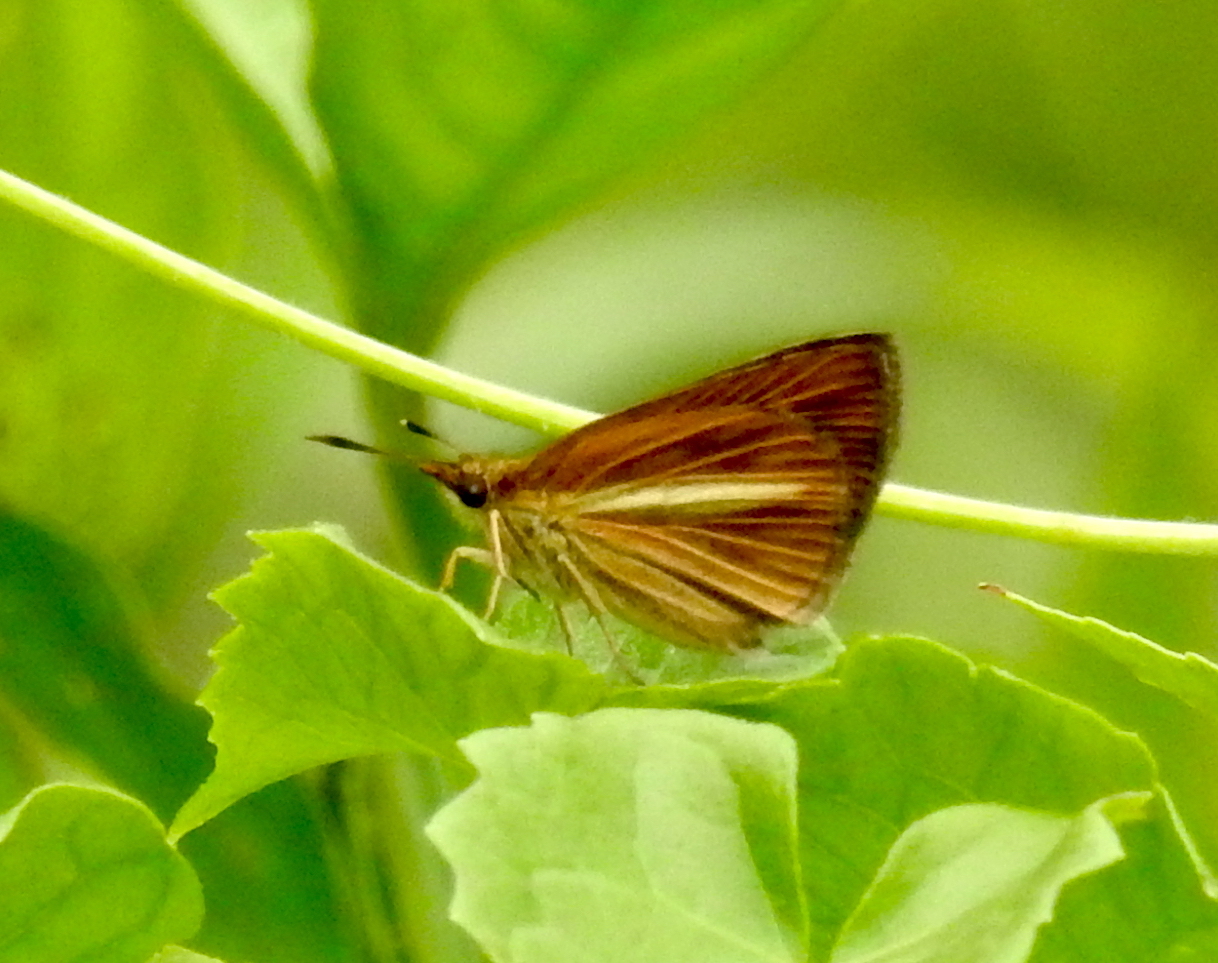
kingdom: Animalia
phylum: Arthropoda
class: Insecta
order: Lepidoptera
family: Hesperiidae
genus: Baracus
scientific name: Baracus vittatus
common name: Hedge-hopper
